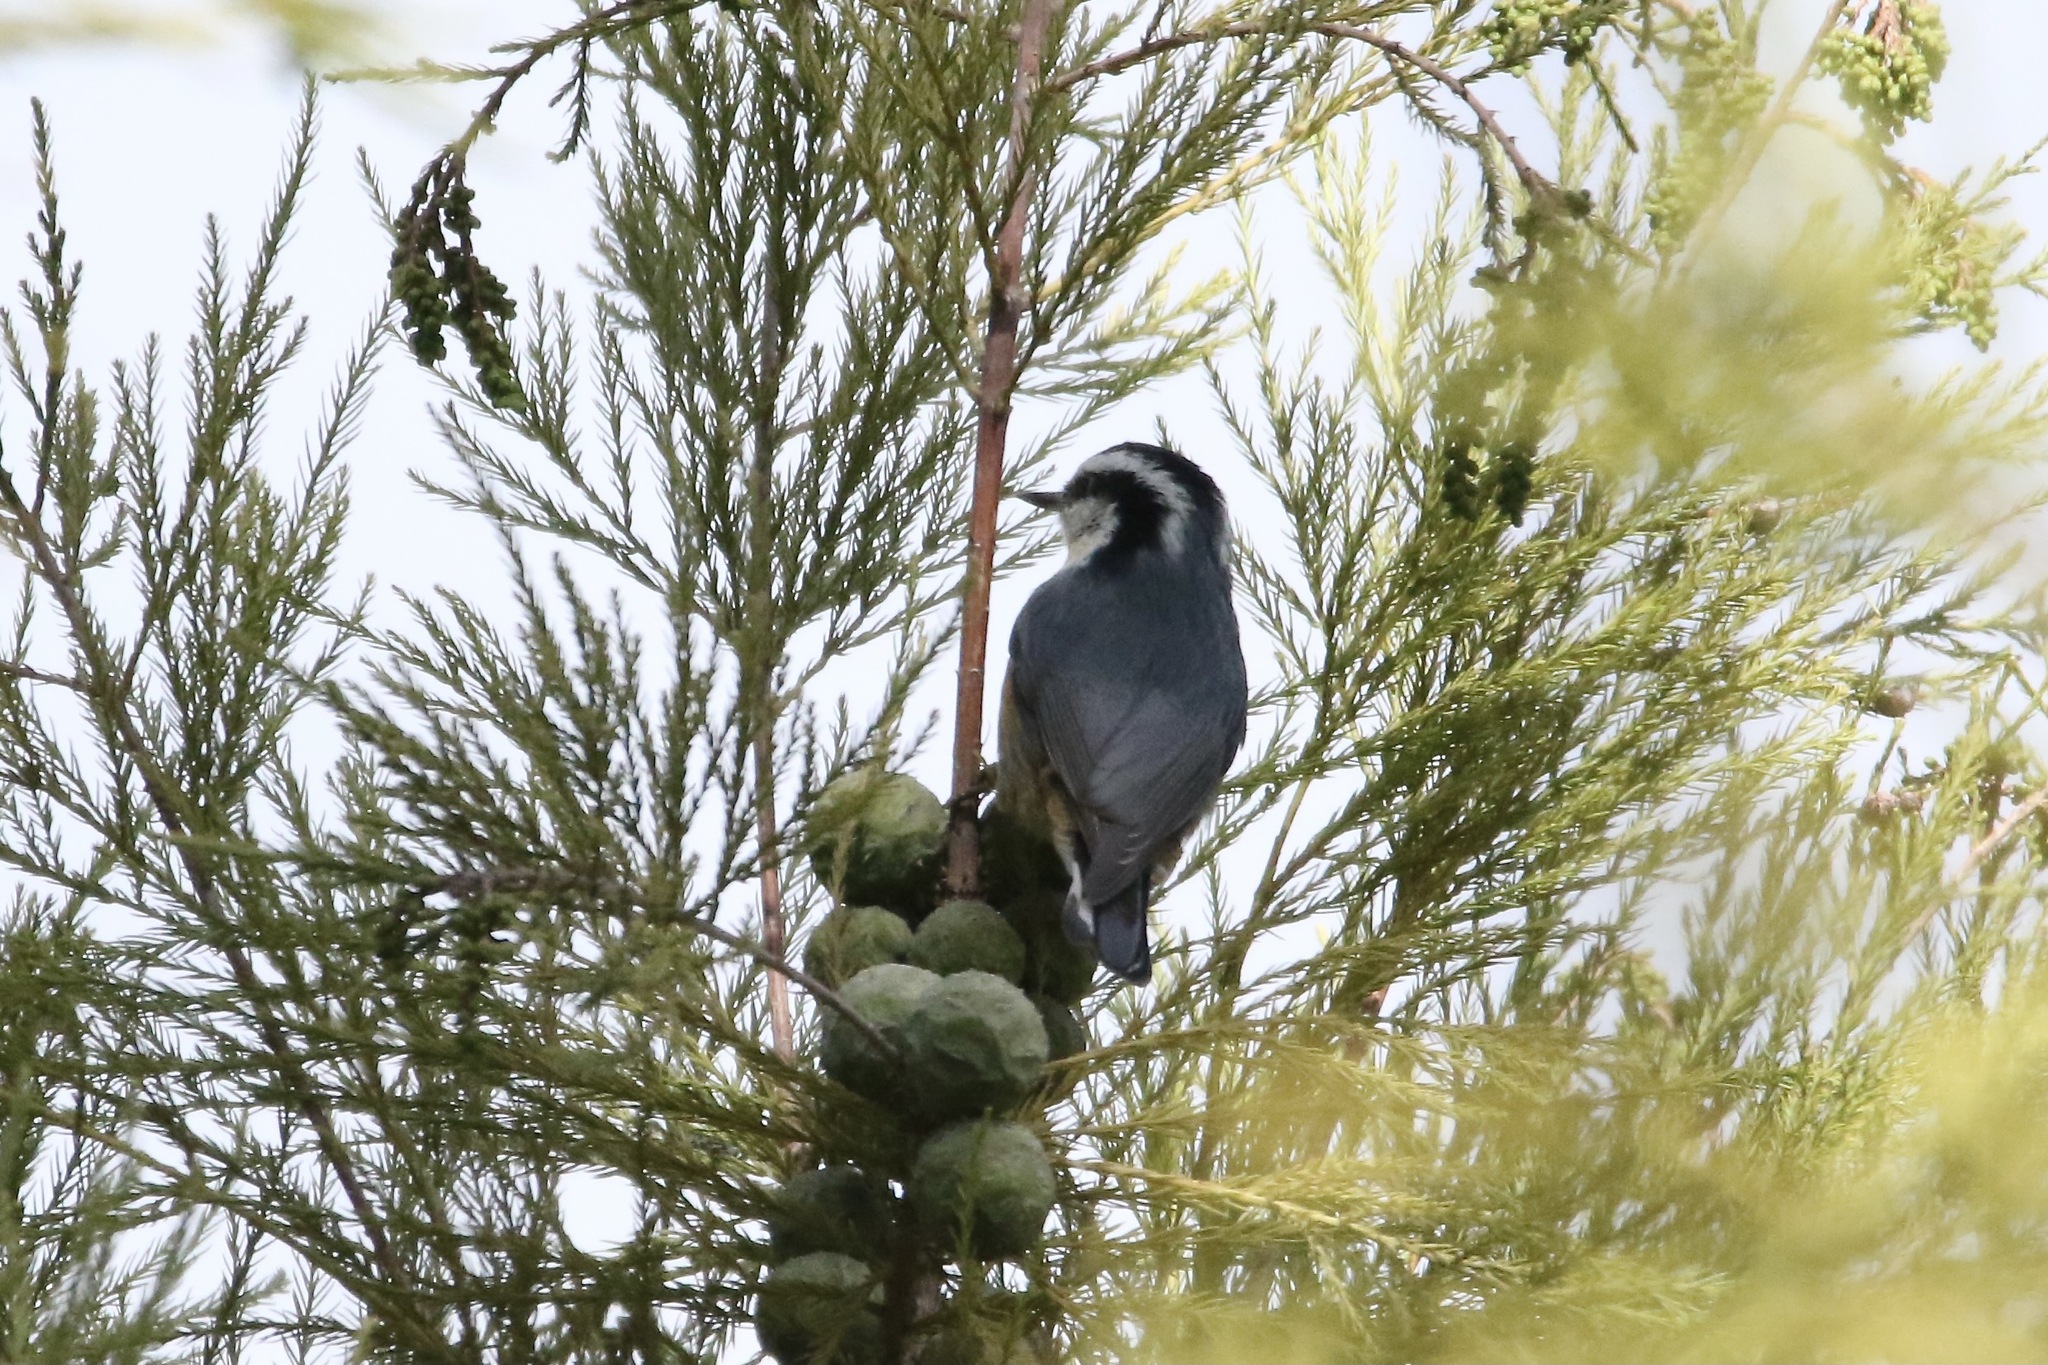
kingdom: Animalia
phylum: Chordata
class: Aves
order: Passeriformes
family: Sittidae
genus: Sitta
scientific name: Sitta canadensis
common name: Red-breasted nuthatch
